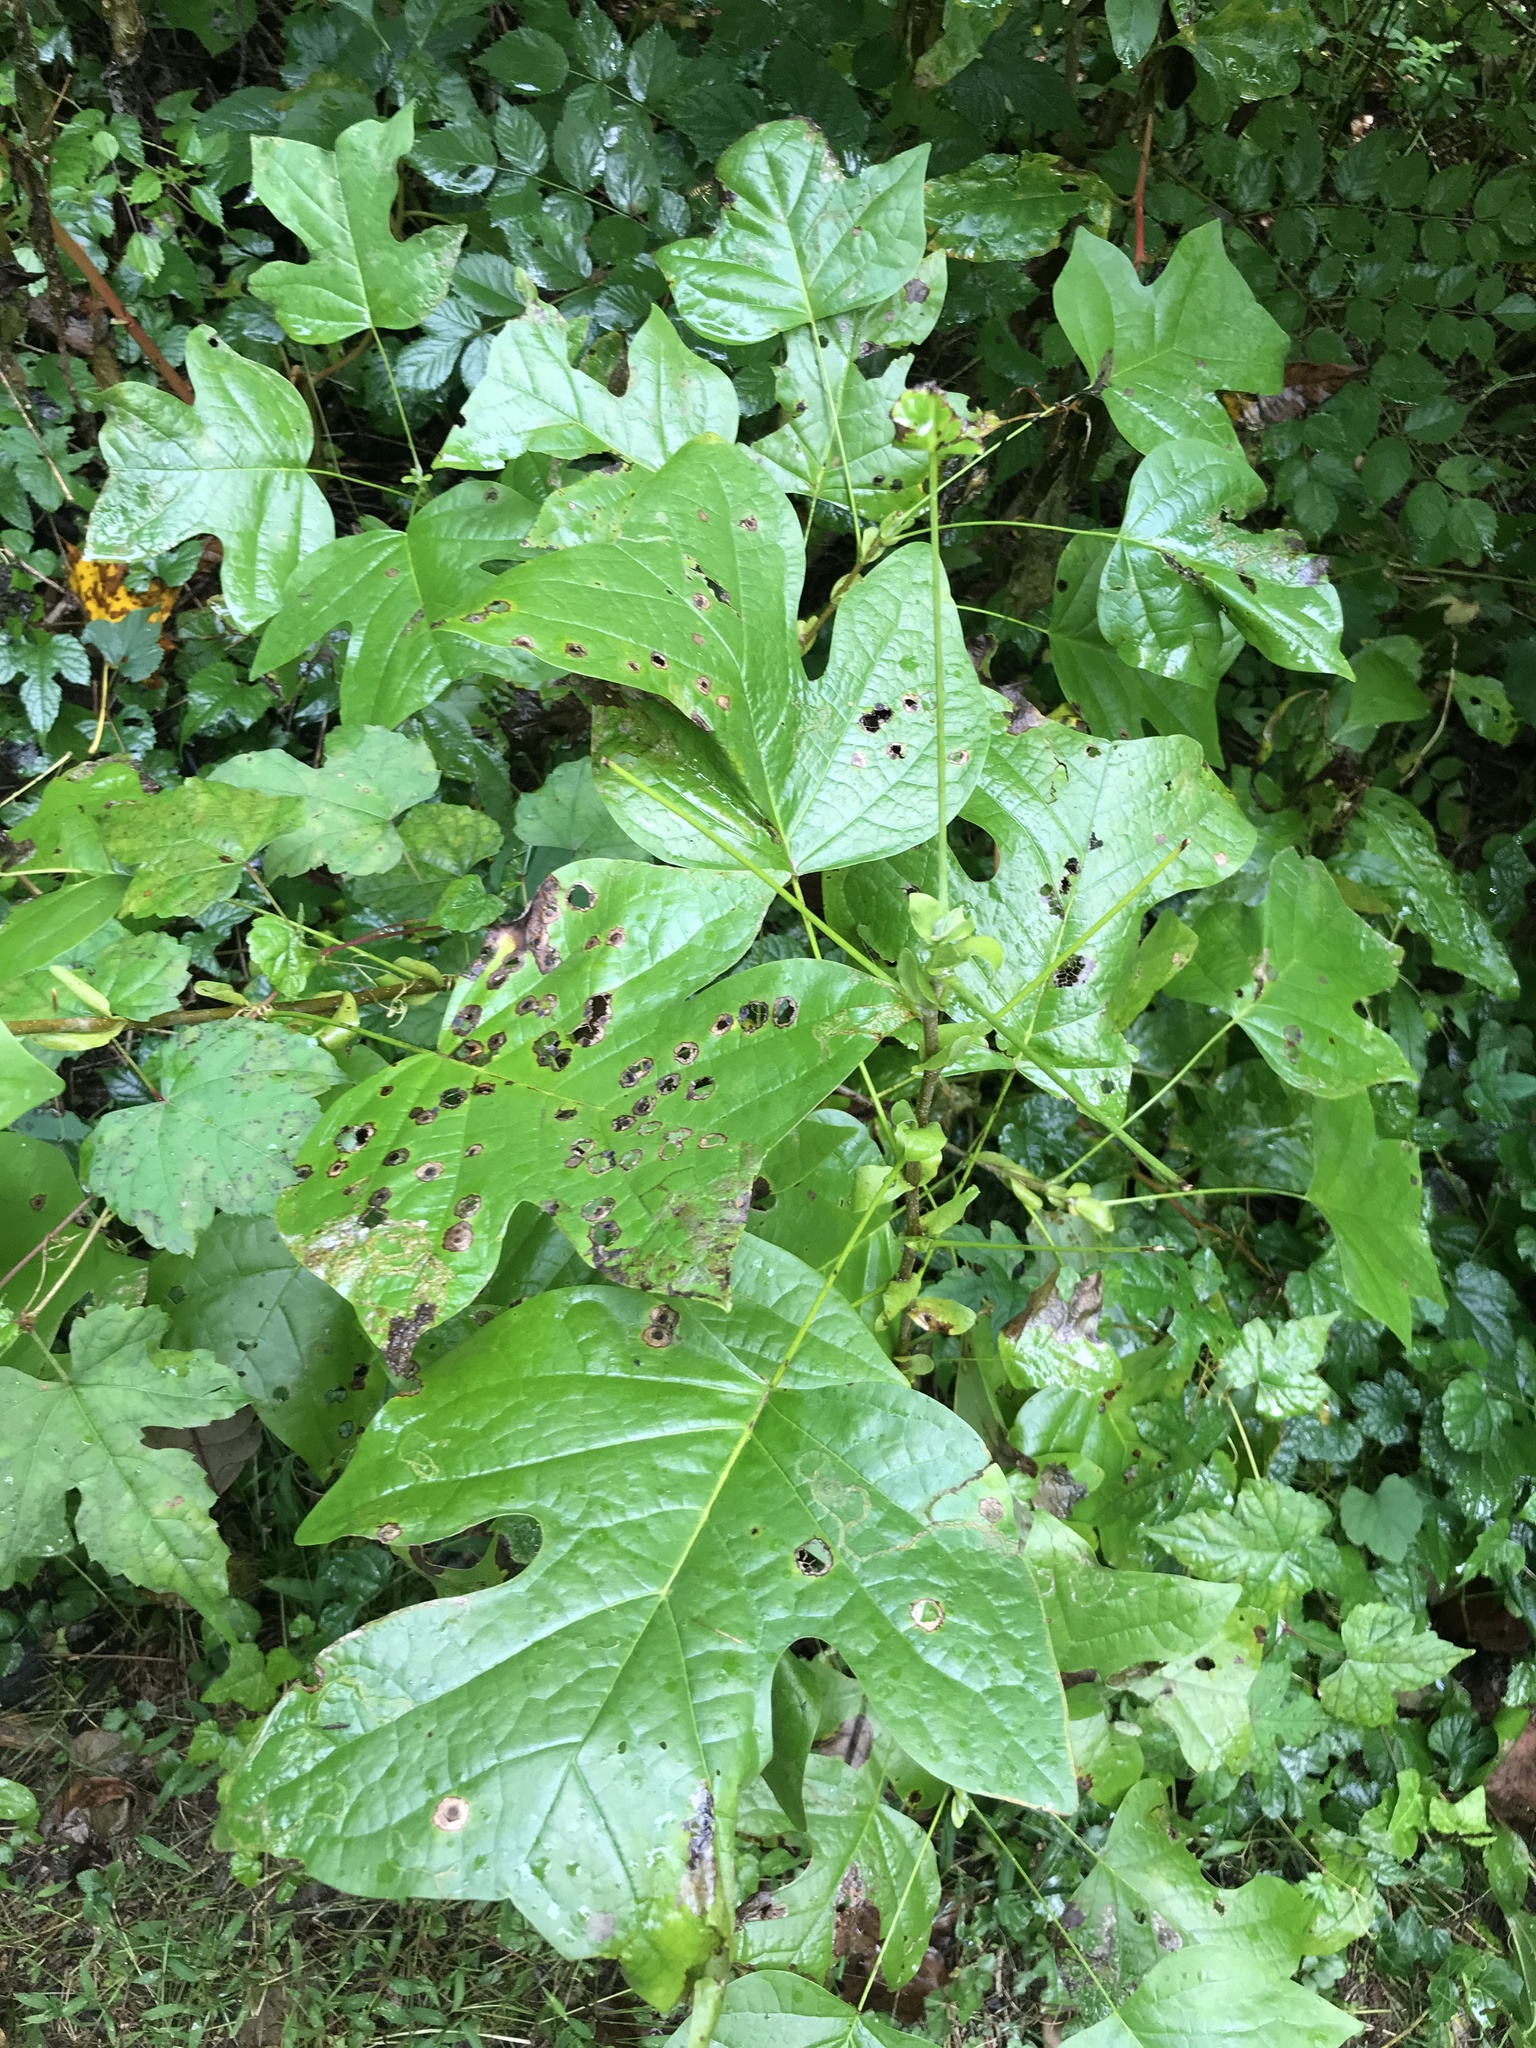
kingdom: Plantae
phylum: Tracheophyta
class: Magnoliopsida
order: Magnoliales
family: Magnoliaceae
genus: Liriodendron
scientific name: Liriodendron tulipifera
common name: Tulip tree
